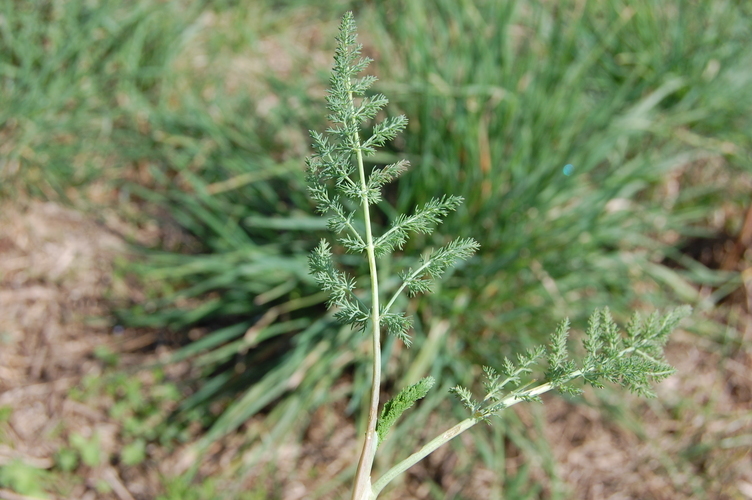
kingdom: Plantae
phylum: Tracheophyta
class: Magnoliopsida
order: Apiales
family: Apiaceae
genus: Foeniculum
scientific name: Foeniculum vulgare
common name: Fennel
